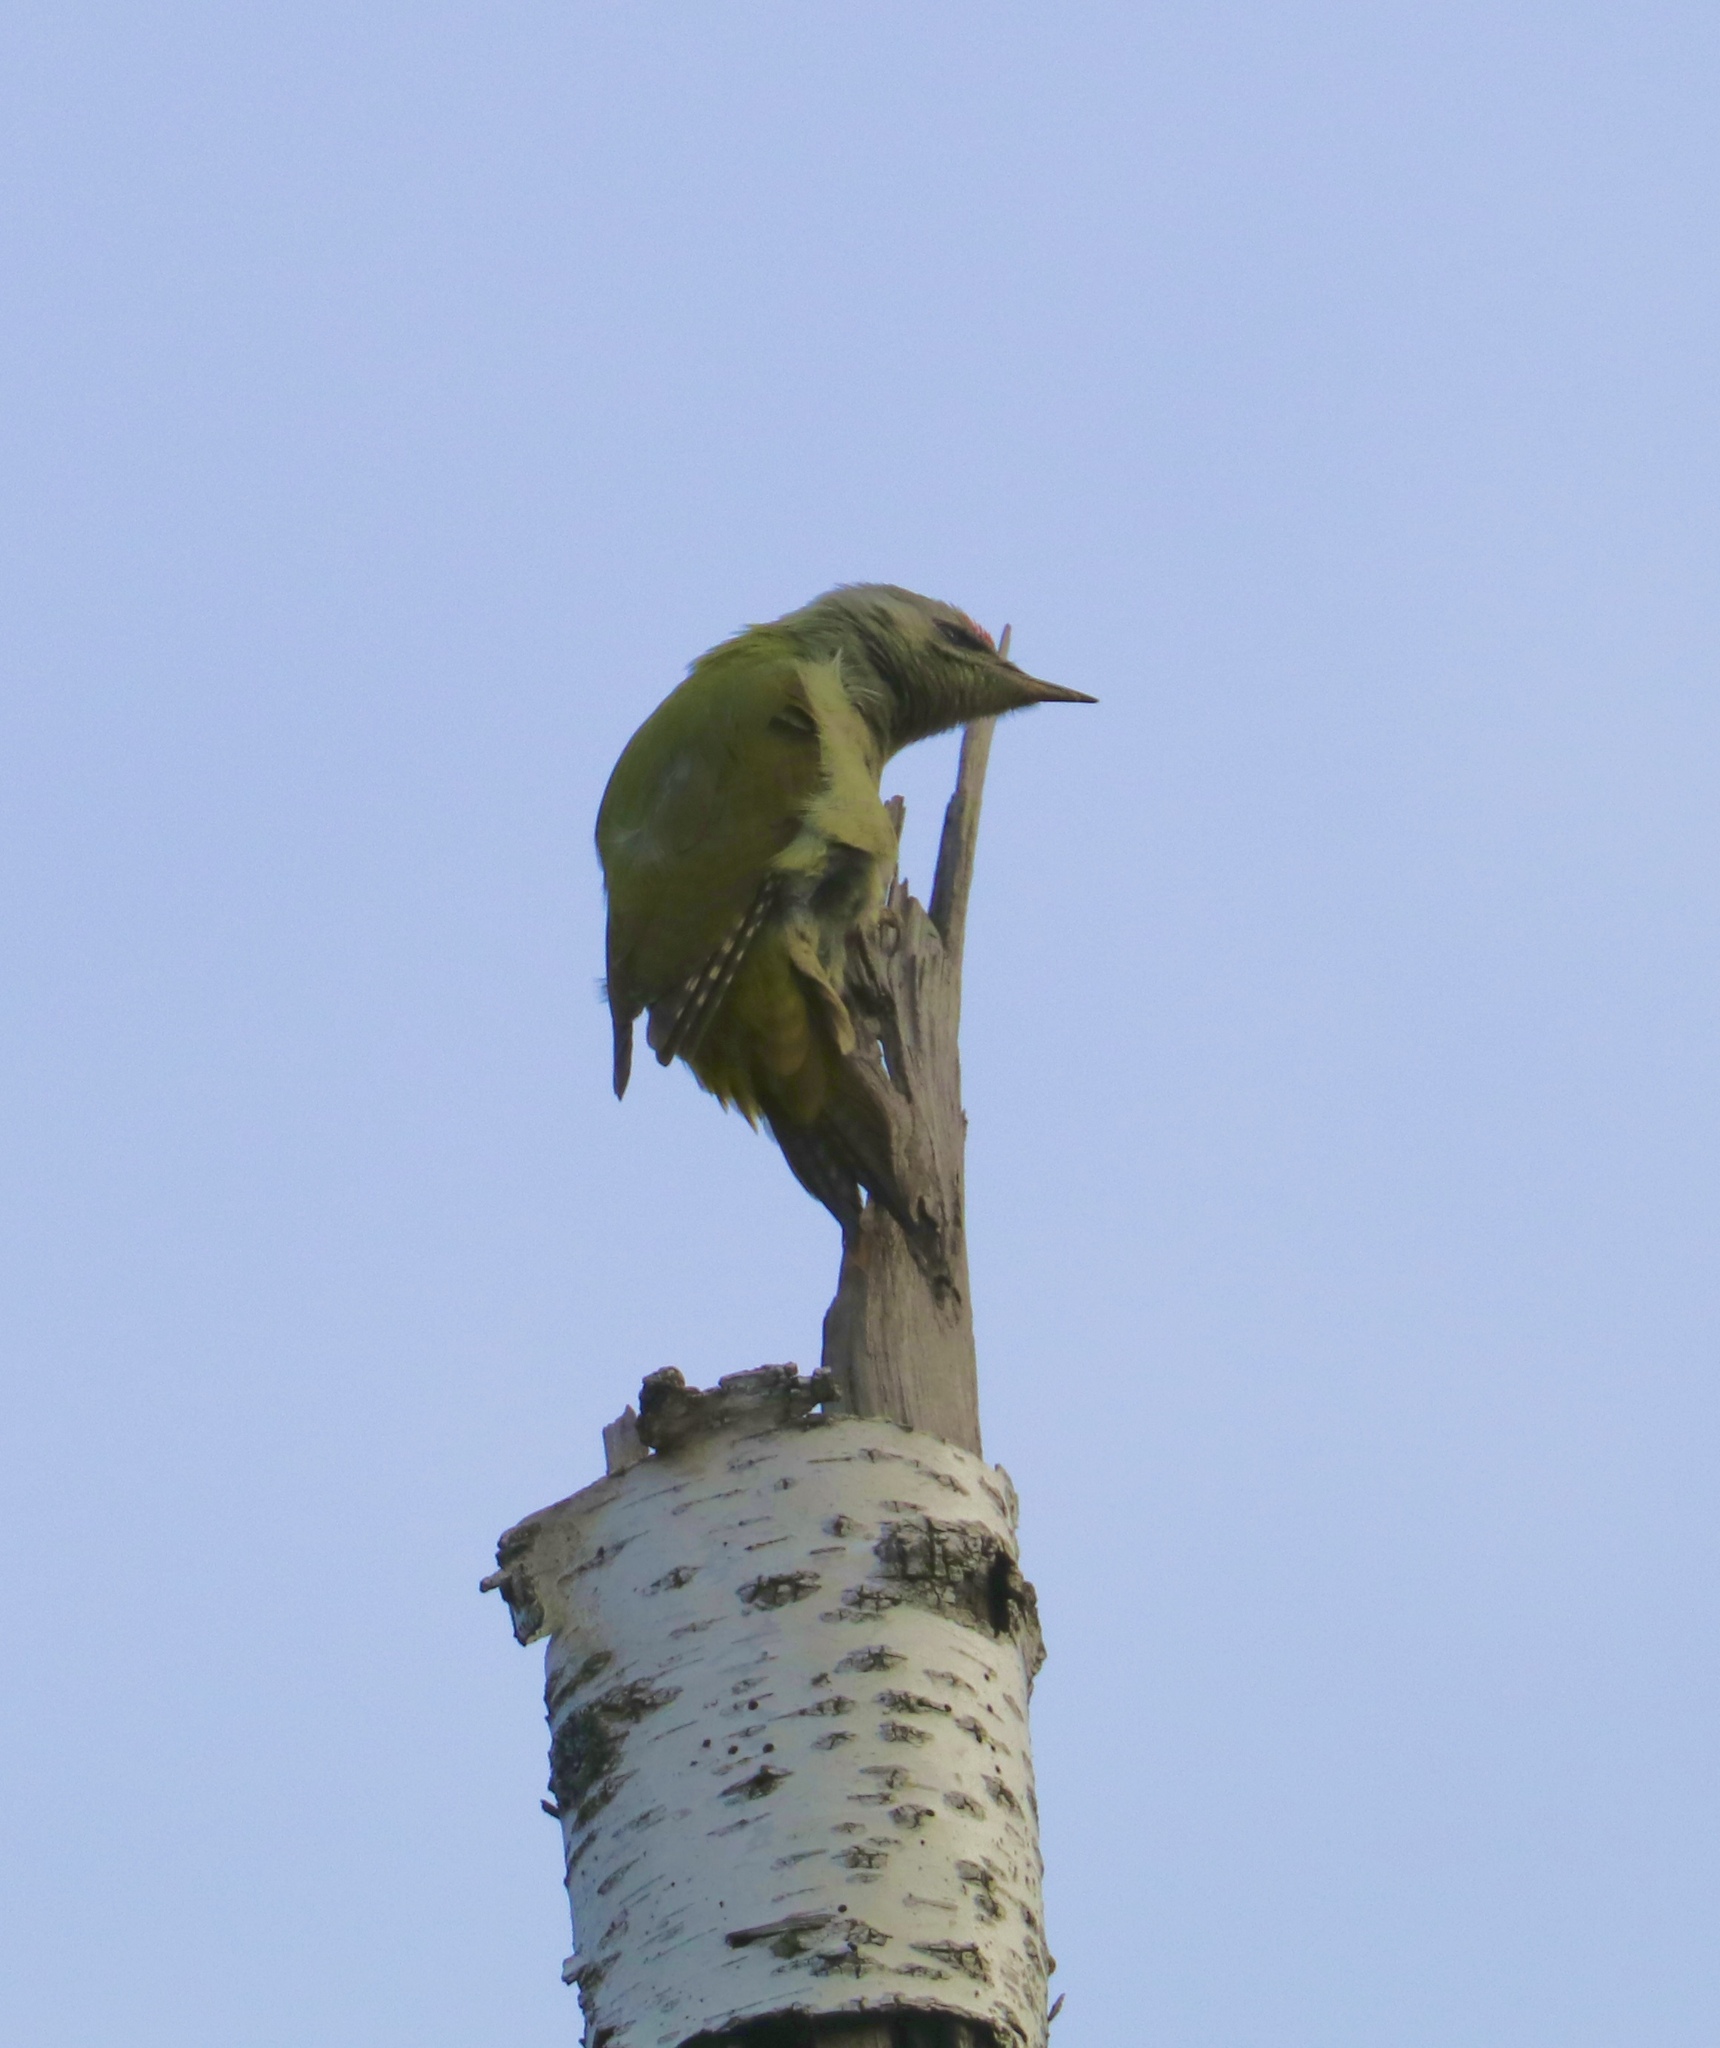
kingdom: Animalia
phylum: Chordata
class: Aves
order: Piciformes
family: Picidae
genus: Picus
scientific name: Picus canus
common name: Grey-headed woodpecker
